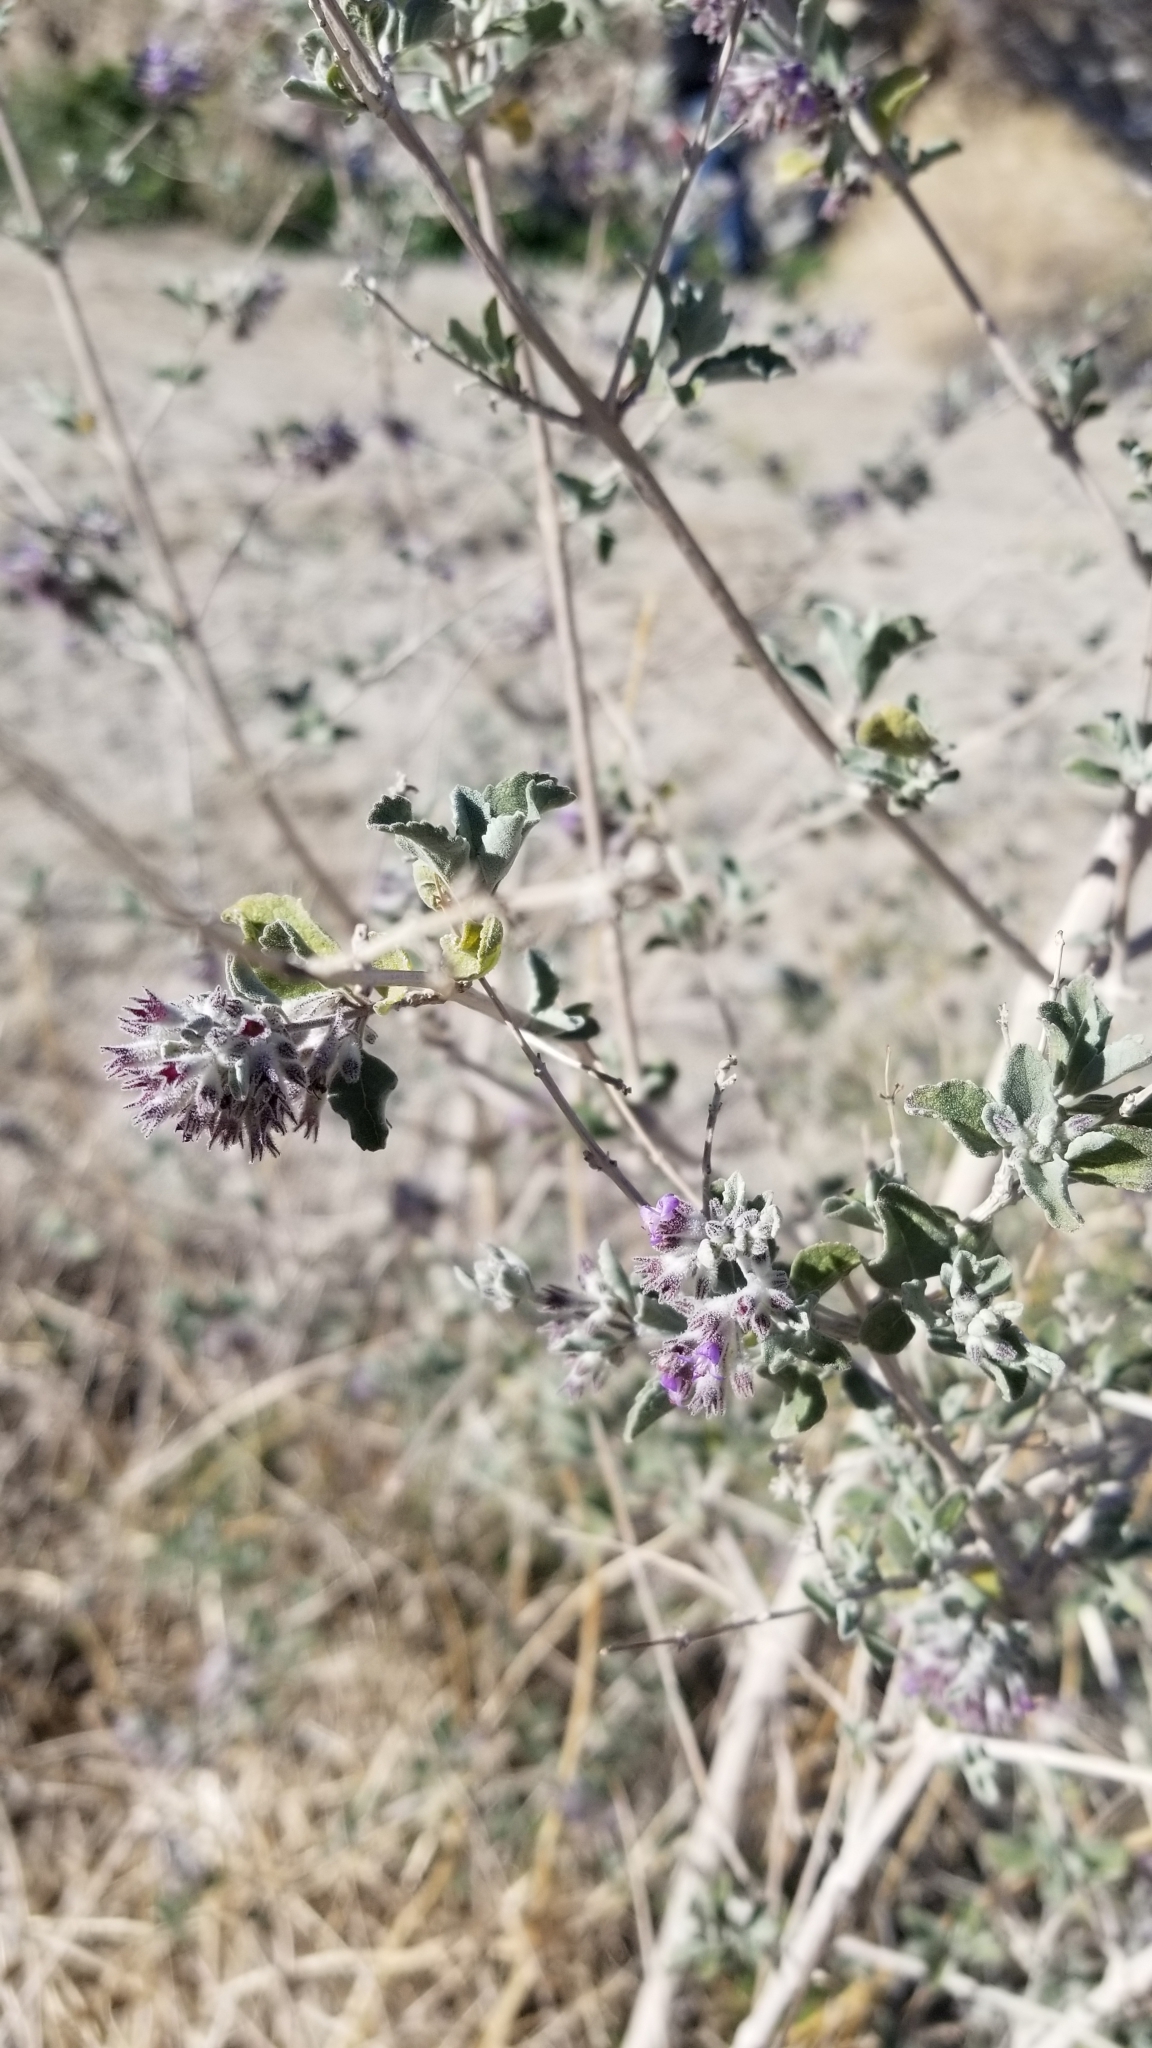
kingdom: Plantae
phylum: Tracheophyta
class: Magnoliopsida
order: Lamiales
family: Lamiaceae
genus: Condea
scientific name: Condea emoryi
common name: Chia
